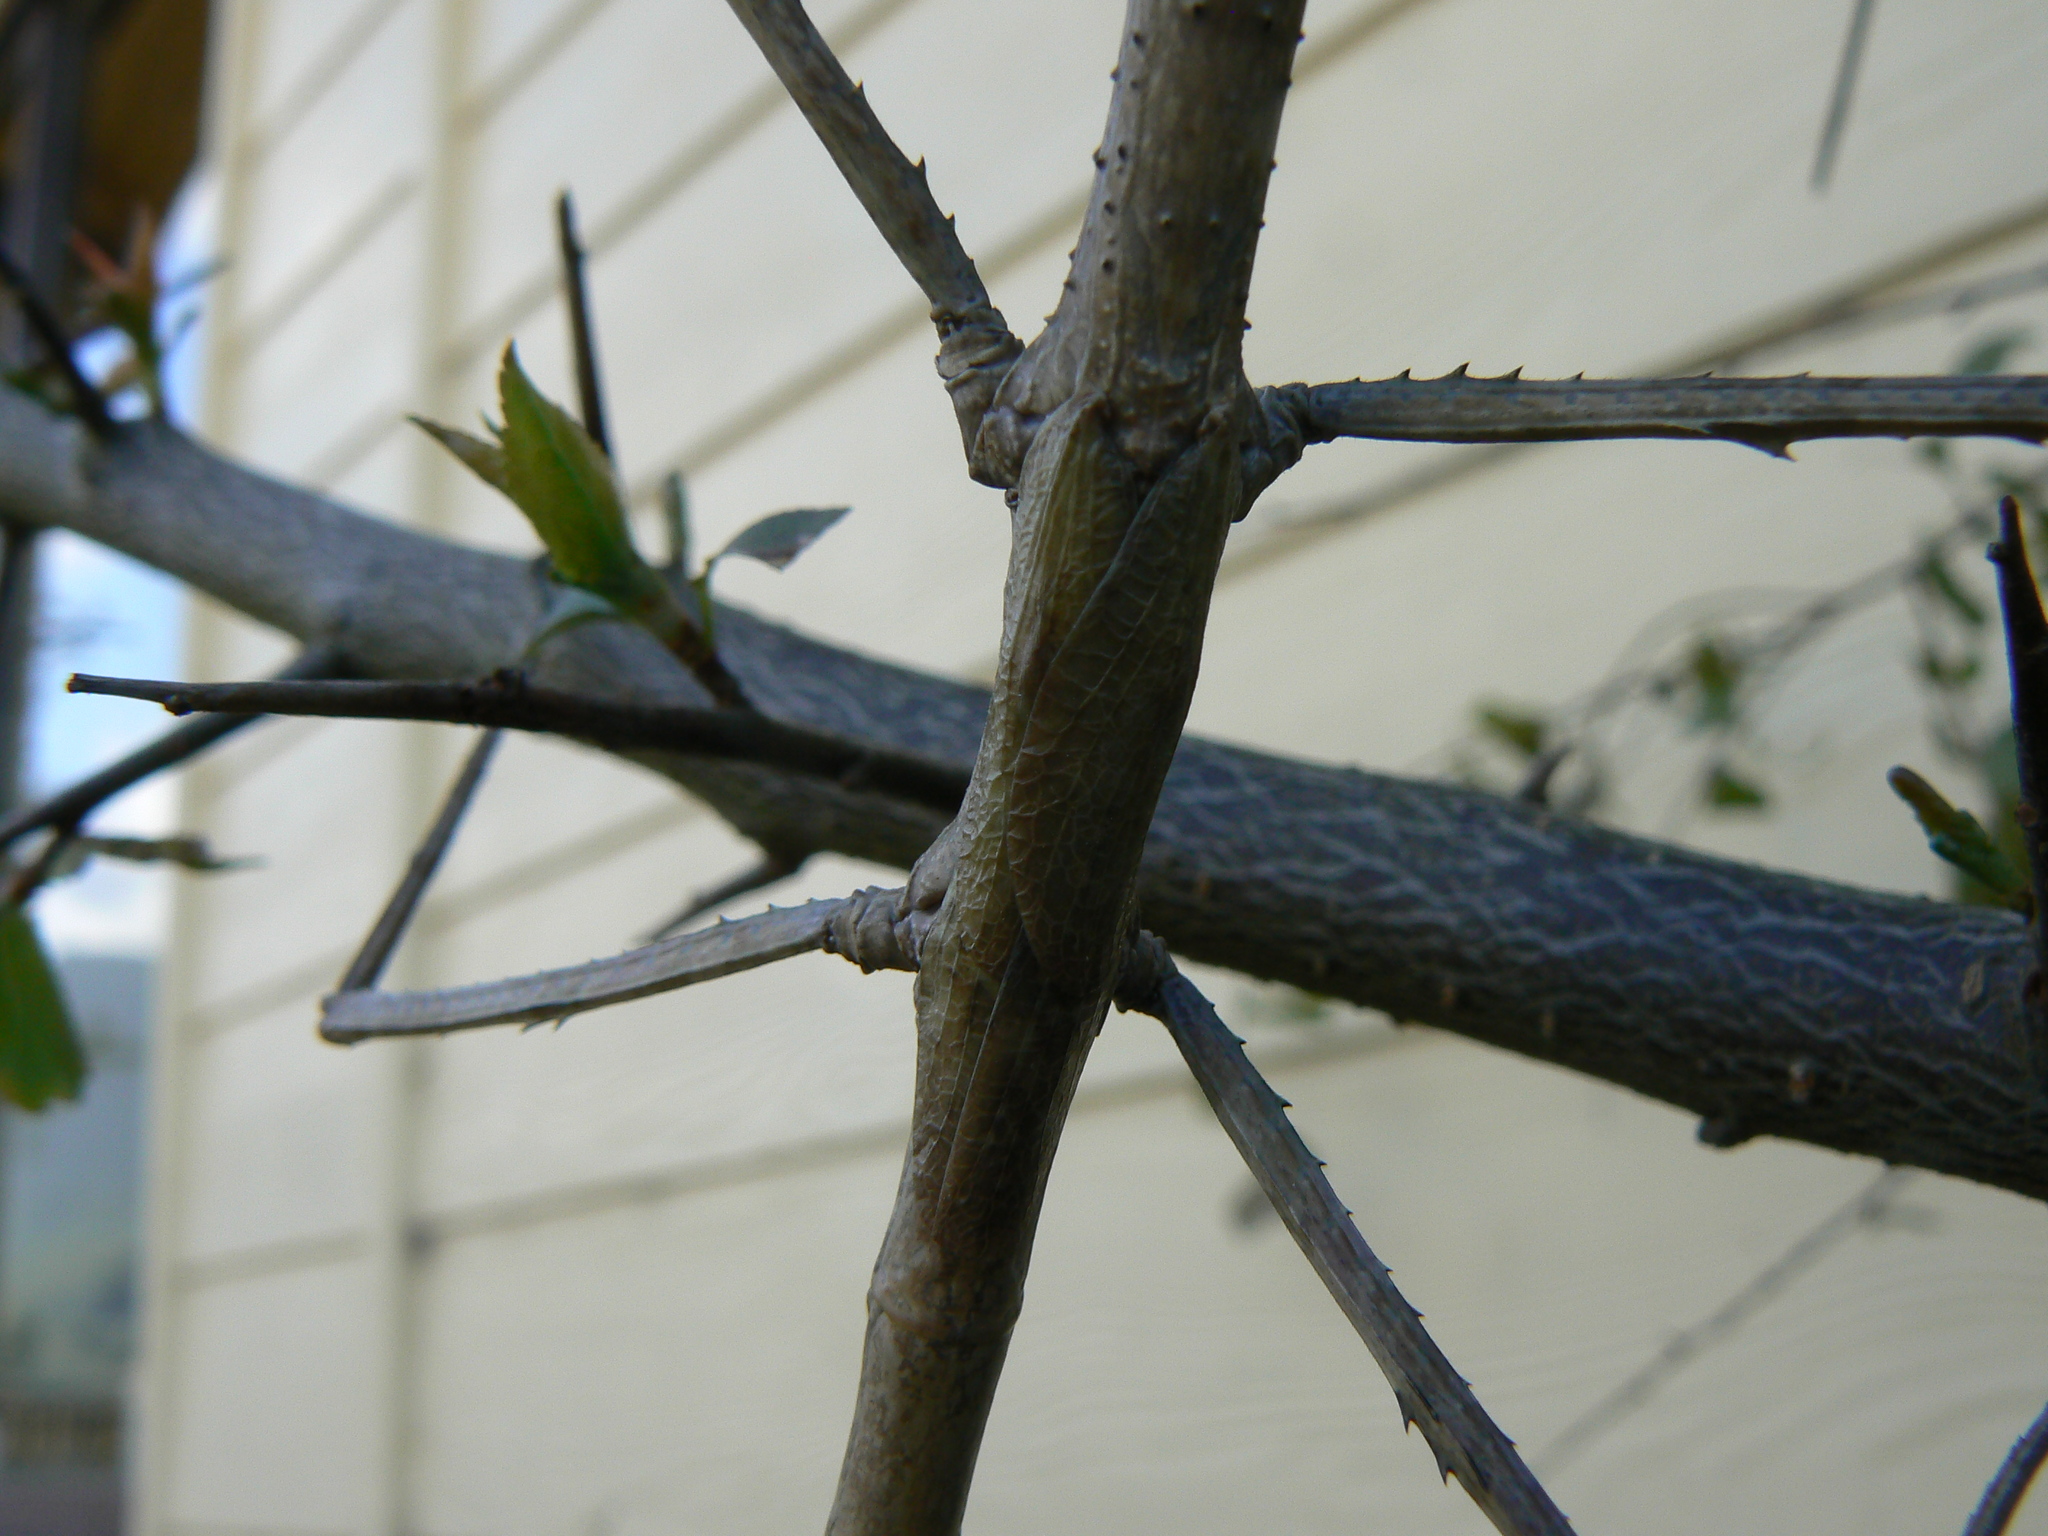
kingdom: Animalia
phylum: Arthropoda
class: Insecta
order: Phasmida
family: Phasmatidae
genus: Ctenomorpha
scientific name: Ctenomorpha marginipennis
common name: Margined-winged stick-insect
